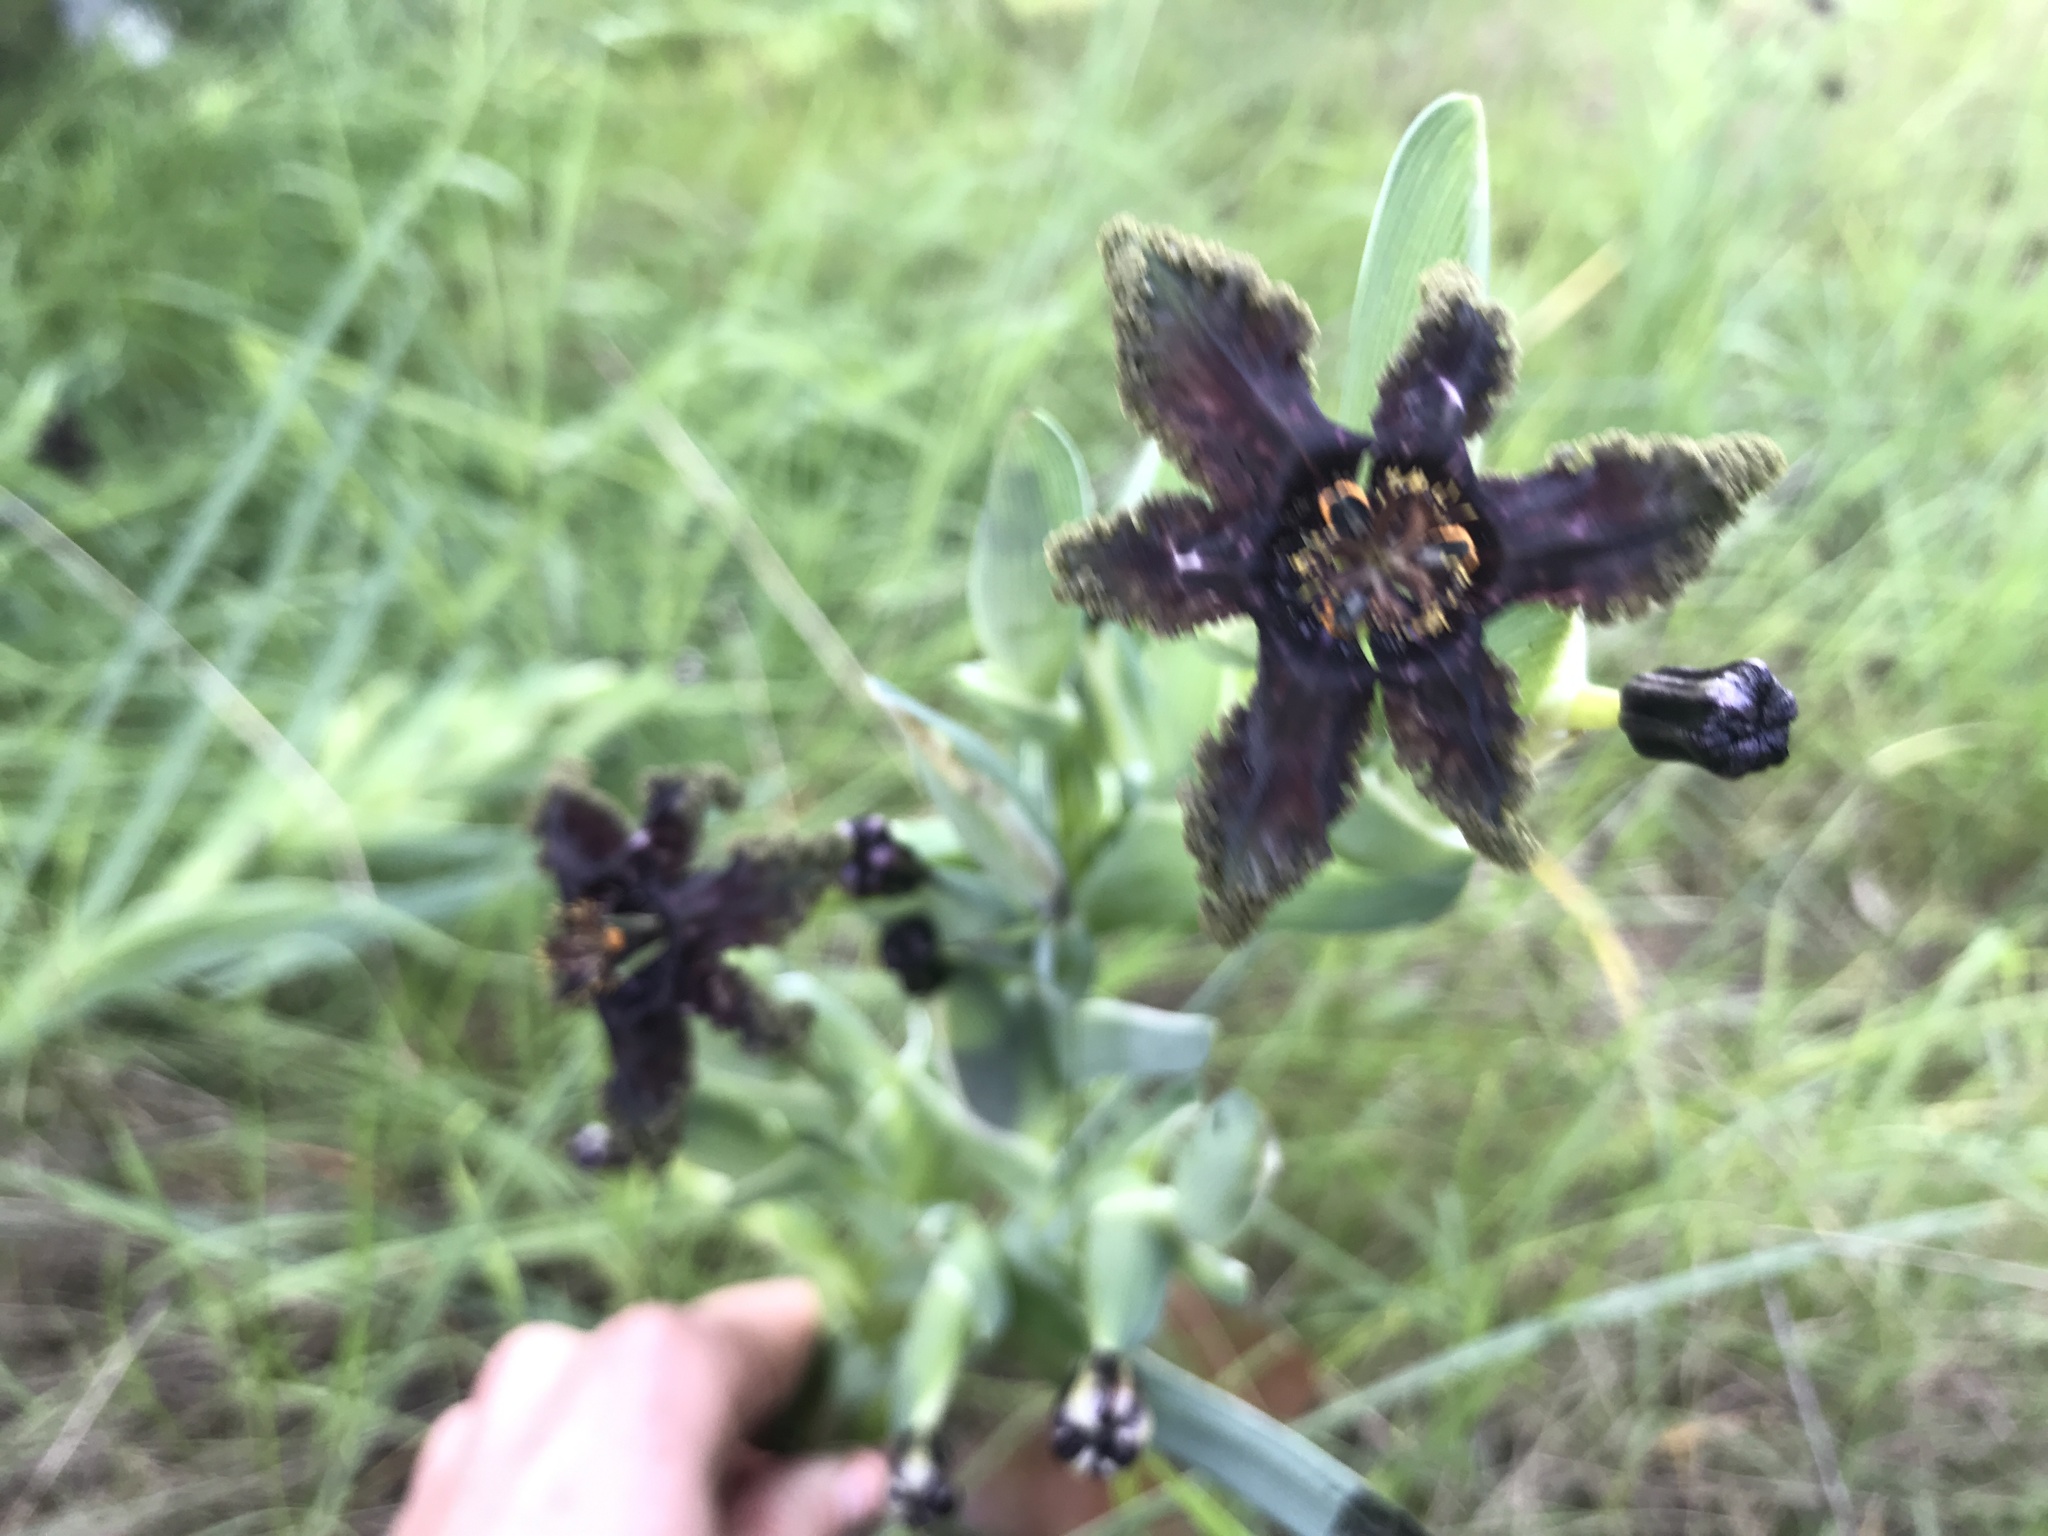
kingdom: Plantae
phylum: Tracheophyta
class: Liliopsida
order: Asparagales
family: Iridaceae
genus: Ferraria
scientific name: Ferraria crispa
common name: Black-flag
